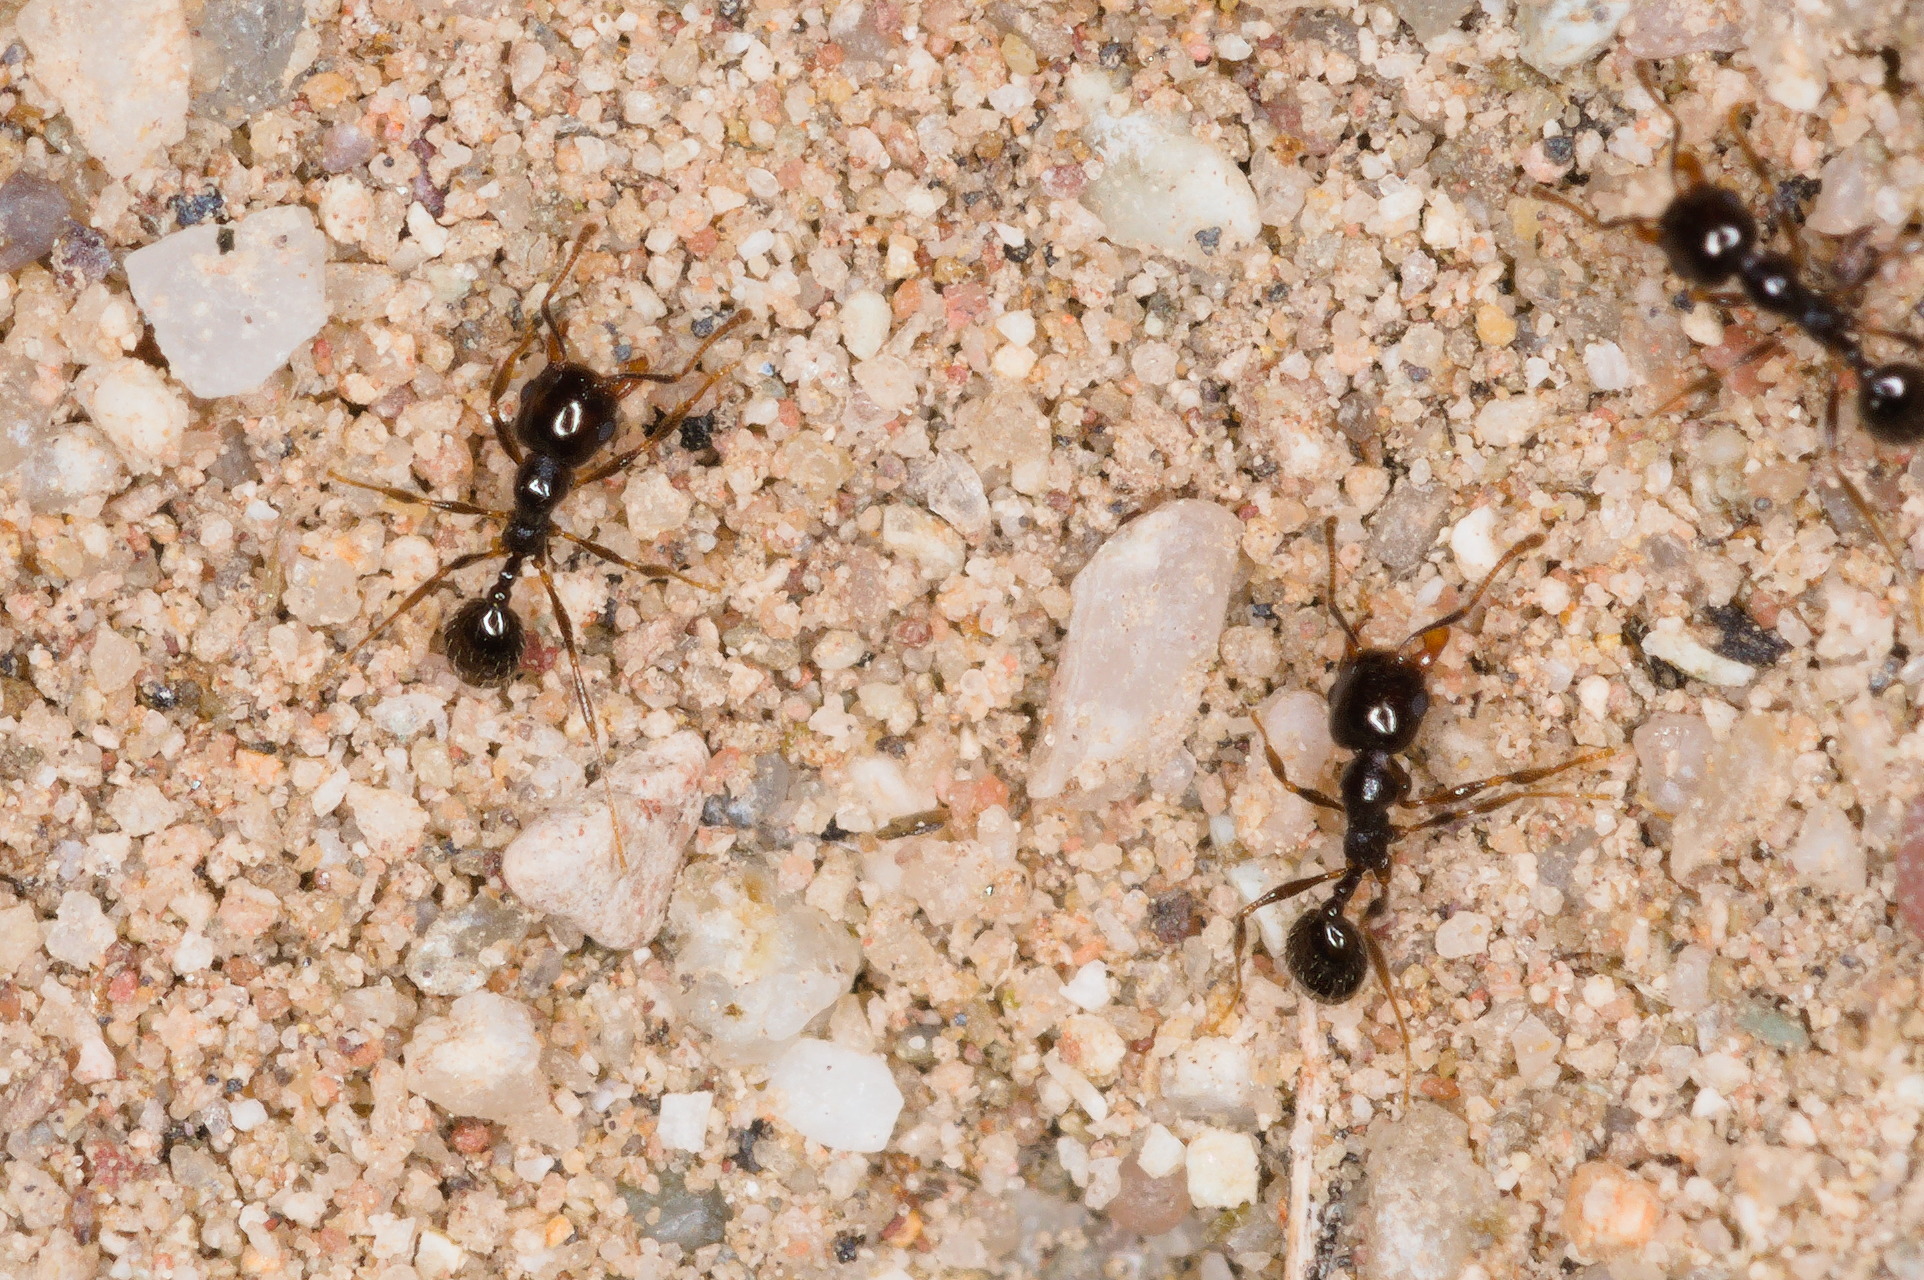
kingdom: Animalia
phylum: Arthropoda
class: Insecta
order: Hymenoptera
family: Formicidae
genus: Pheidole
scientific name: Pheidole xerophila
